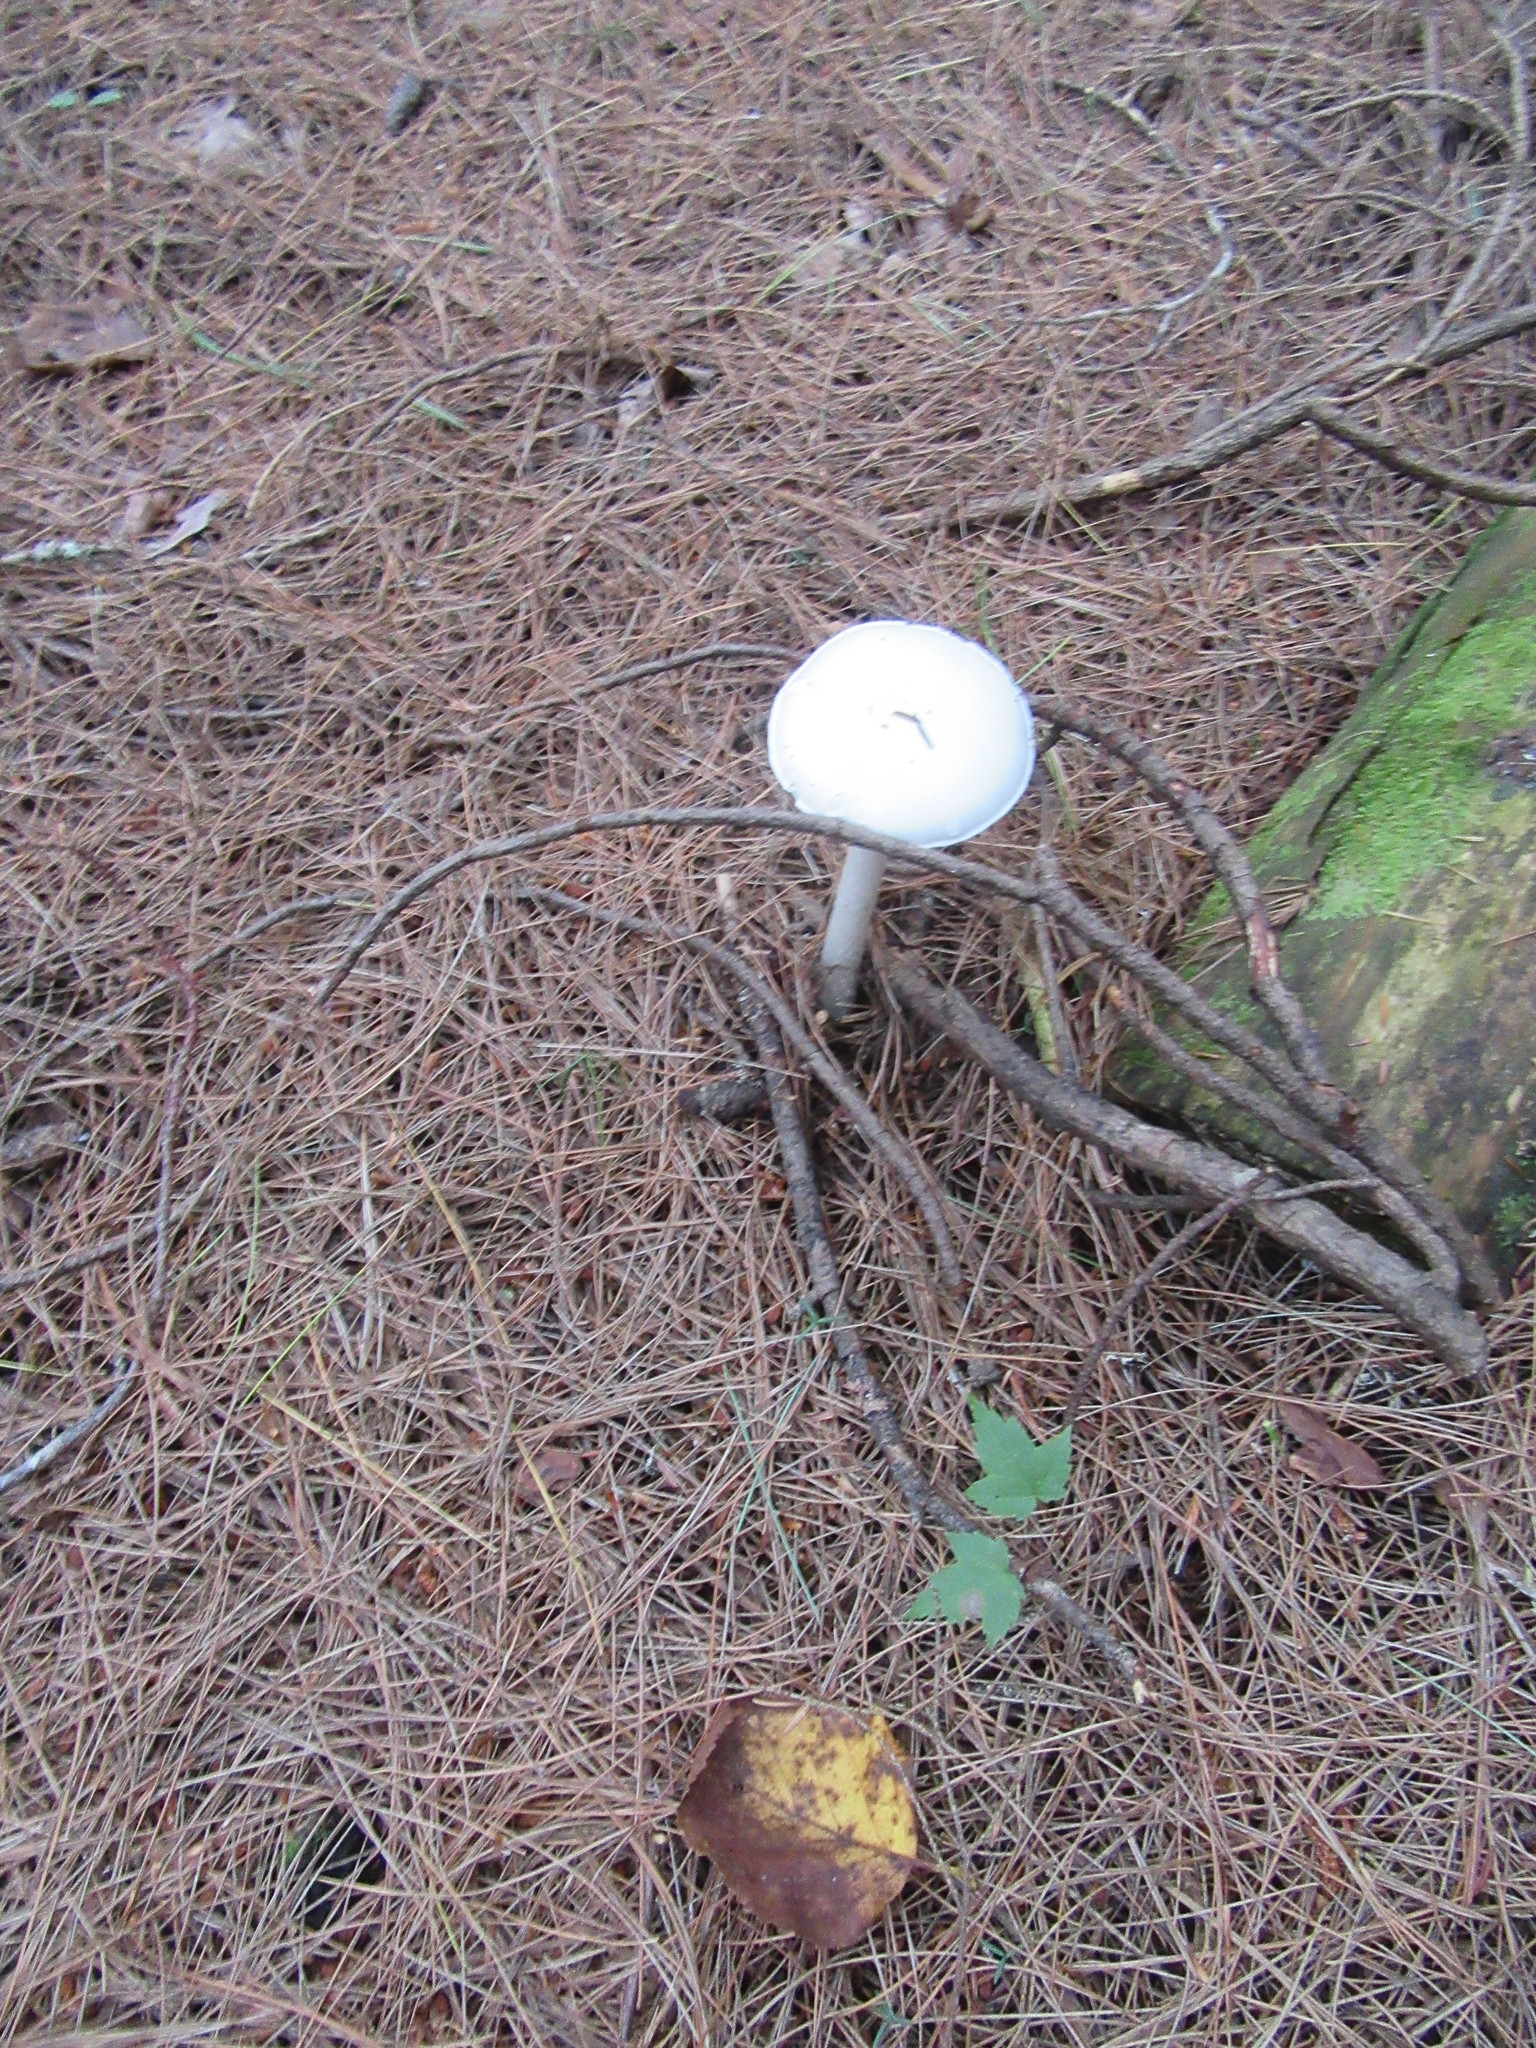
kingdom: Fungi
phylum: Basidiomycota
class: Agaricomycetes
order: Agaricales
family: Amanitaceae
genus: Amanita
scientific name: Amanita bisporigera
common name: Eastern north american destroying angel
